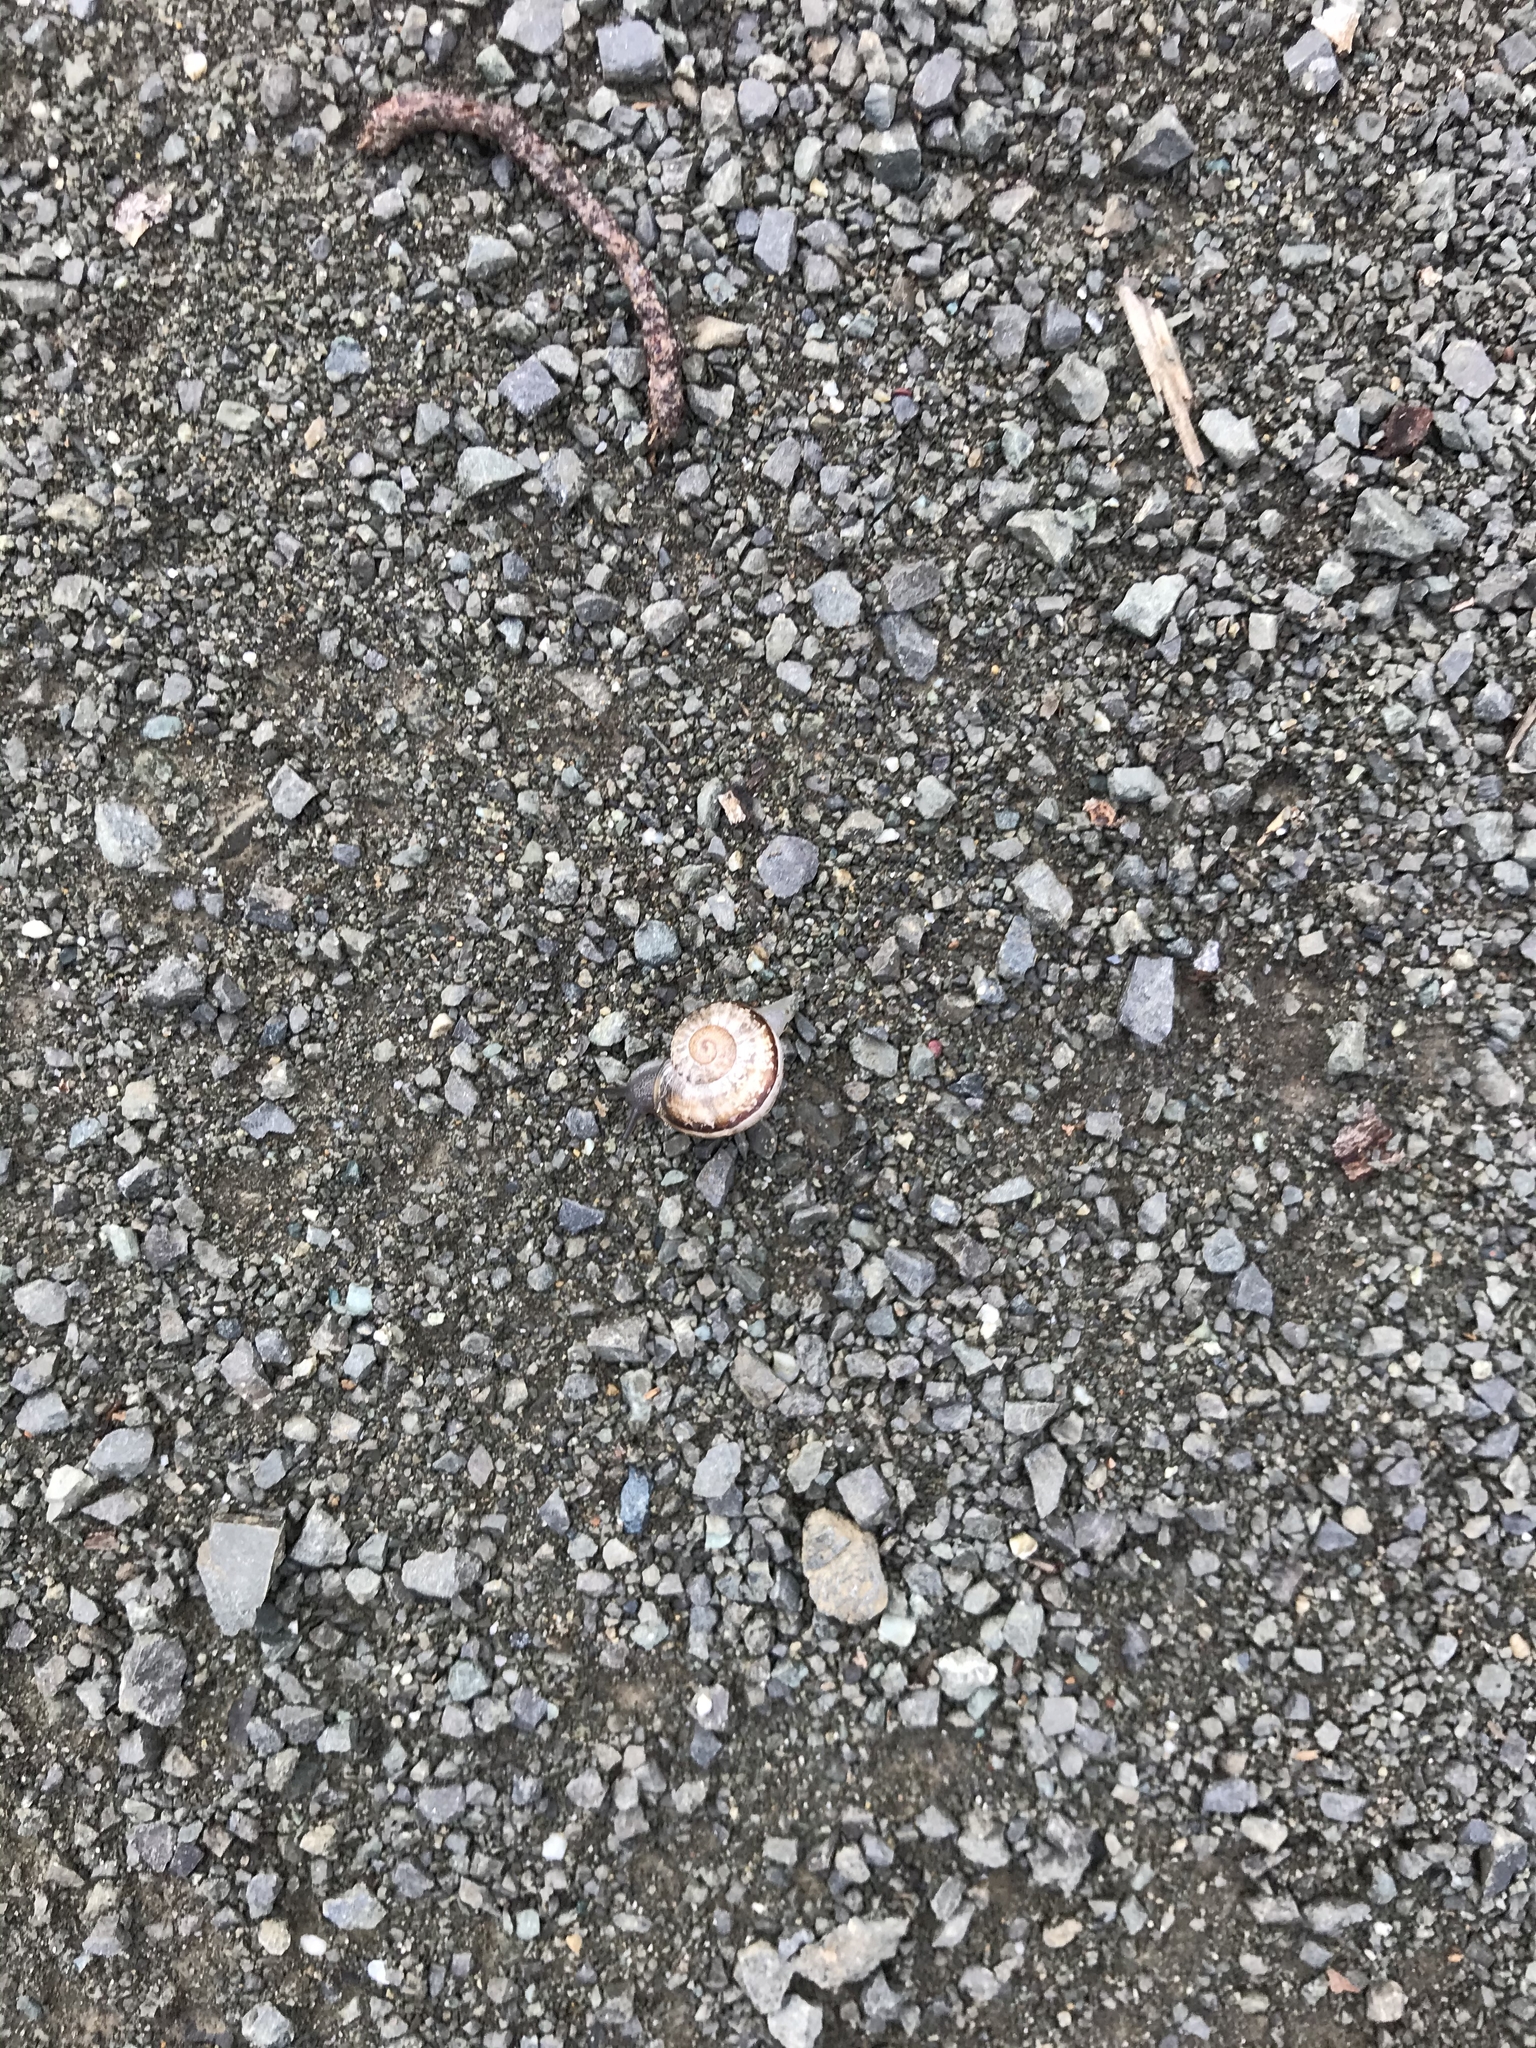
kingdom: Animalia
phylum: Mollusca
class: Gastropoda
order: Stylommatophora
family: Helicidae
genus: Otala
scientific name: Otala lactea
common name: Milk snail
